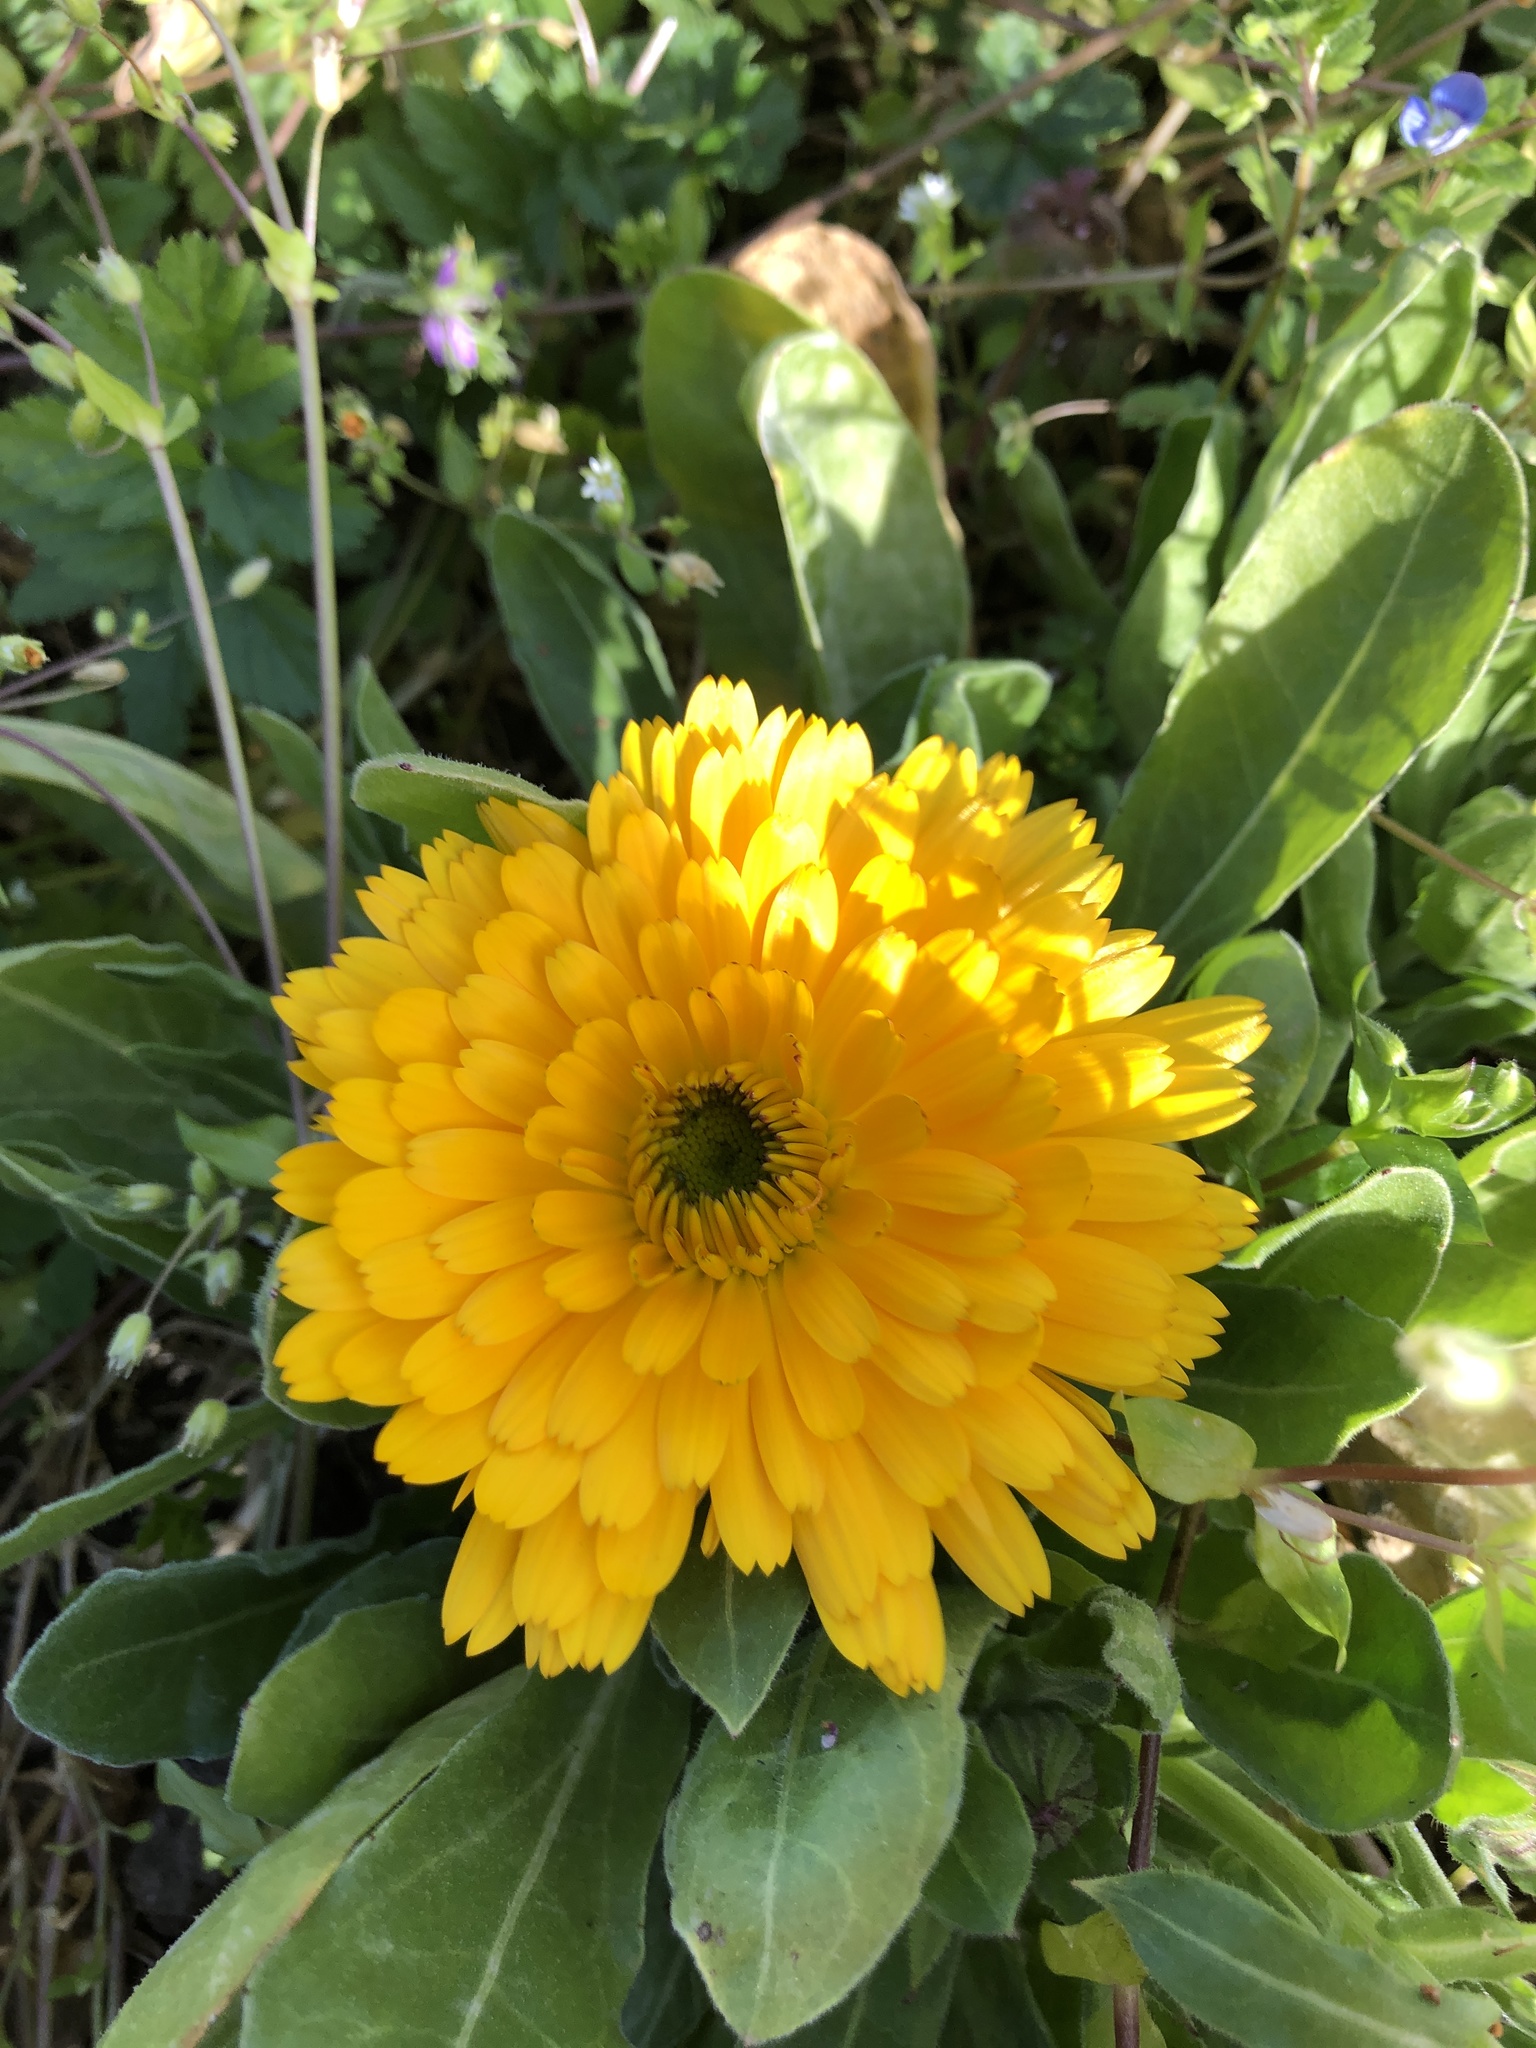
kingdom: Plantae
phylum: Tracheophyta
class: Magnoliopsida
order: Asterales
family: Asteraceae
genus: Calendula
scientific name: Calendula officinalis
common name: Pot marigold
